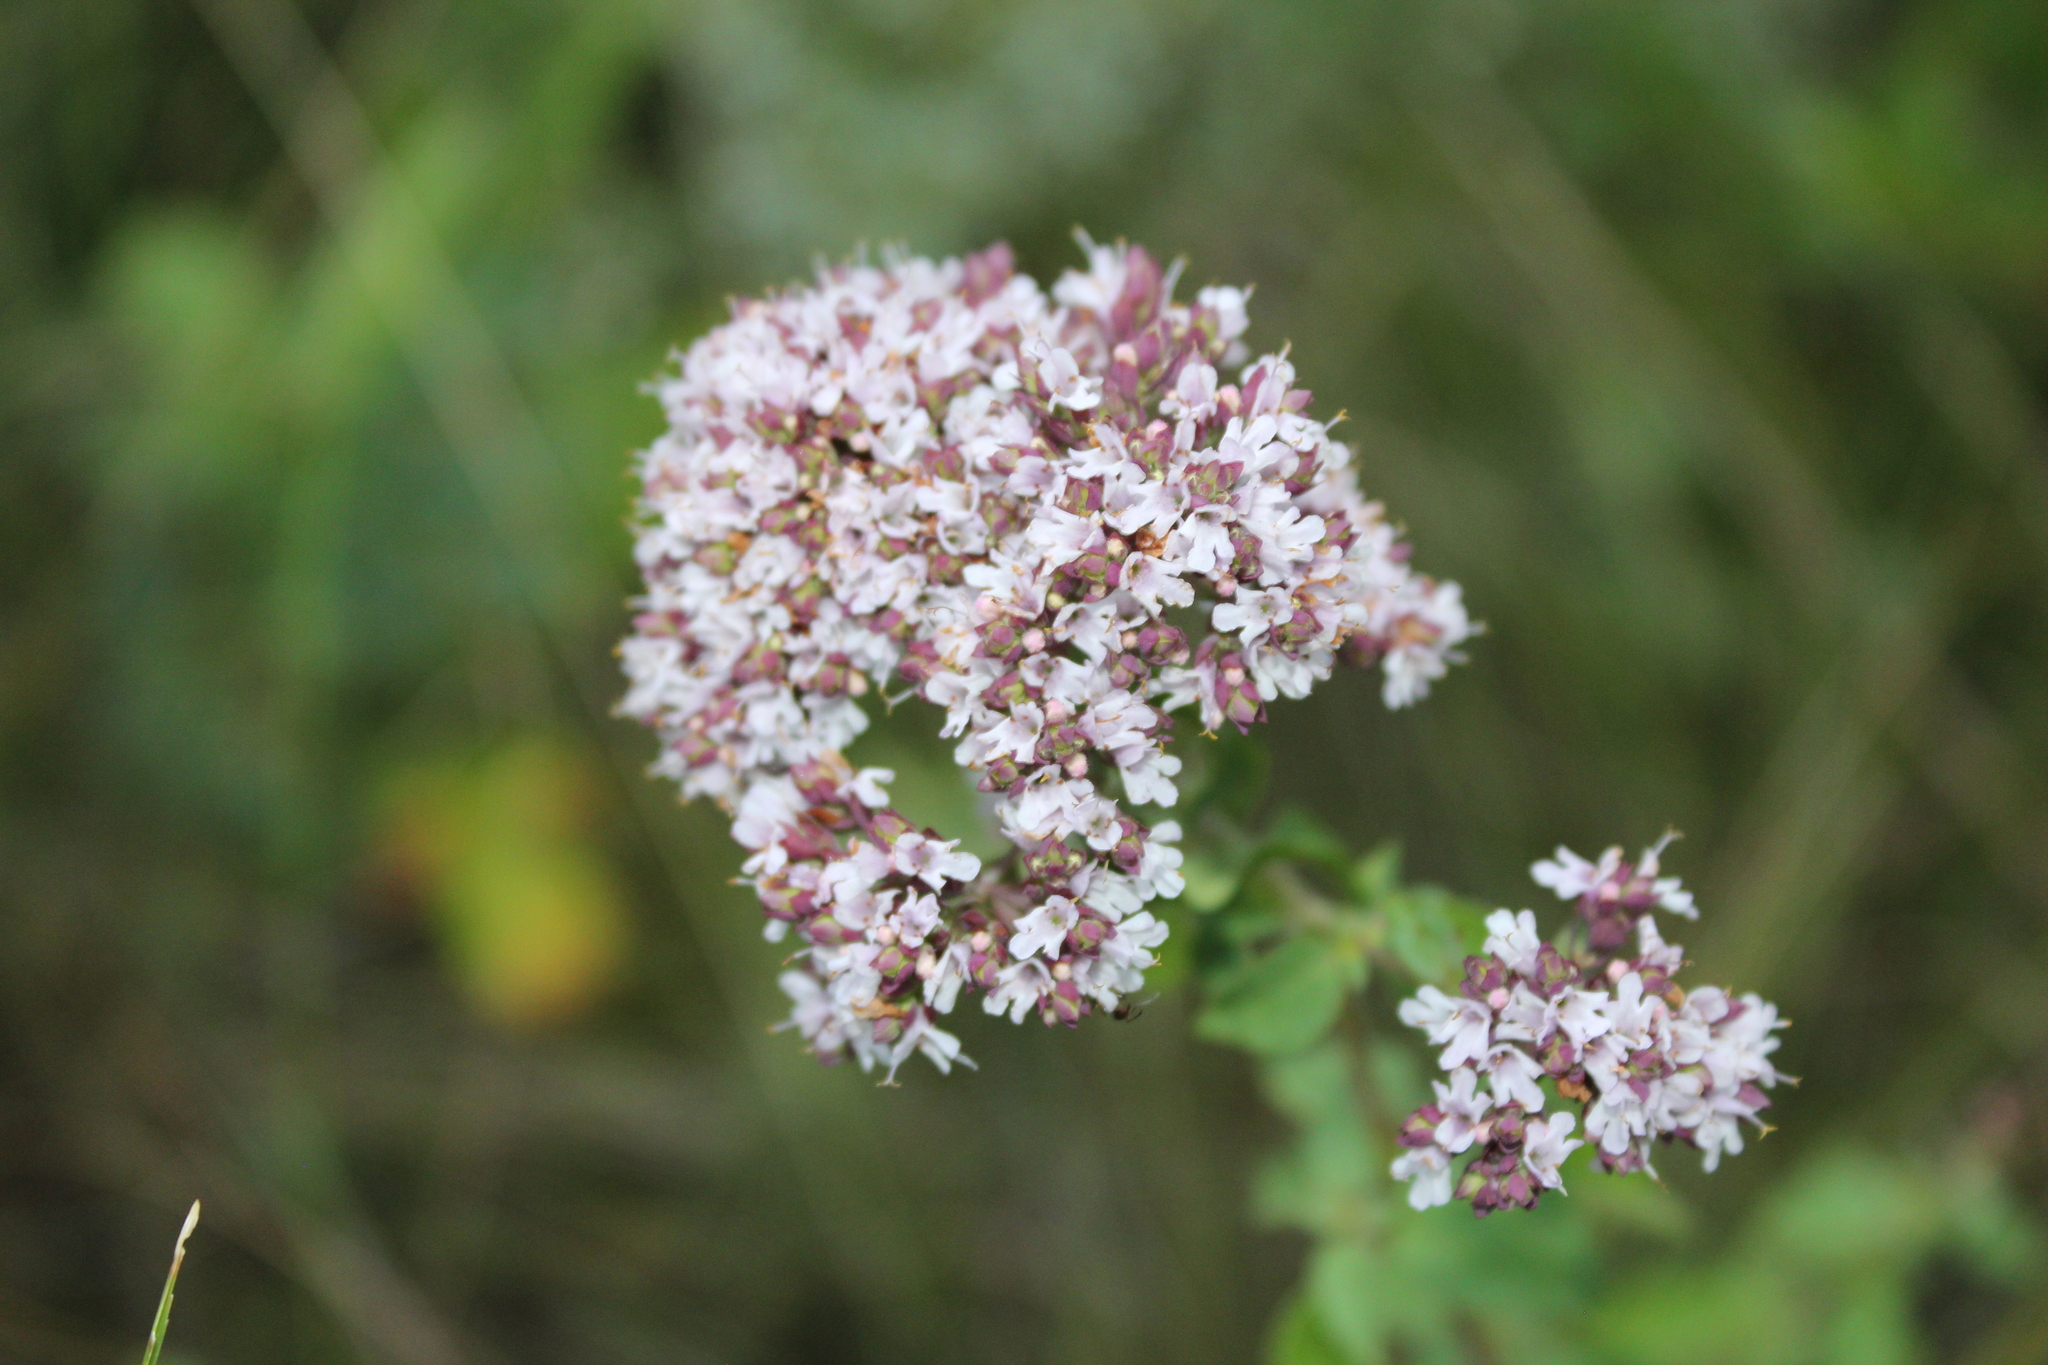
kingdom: Plantae
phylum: Tracheophyta
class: Magnoliopsida
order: Lamiales
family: Lamiaceae
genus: Origanum
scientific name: Origanum vulgare
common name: Wild marjoram
